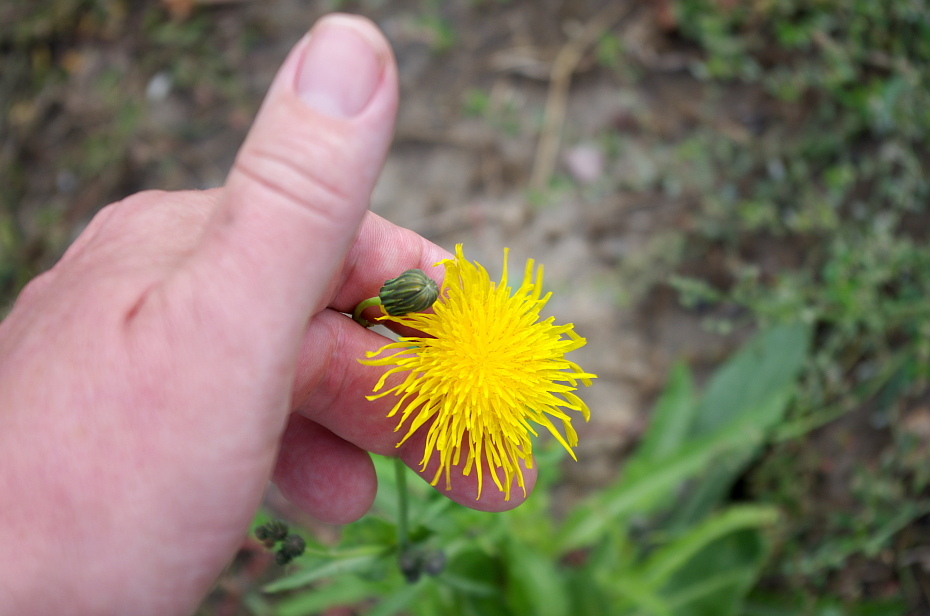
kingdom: Plantae
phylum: Tracheophyta
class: Magnoliopsida
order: Asterales
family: Asteraceae
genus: Sonchus
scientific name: Sonchus arvensis
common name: Perennial sow-thistle
